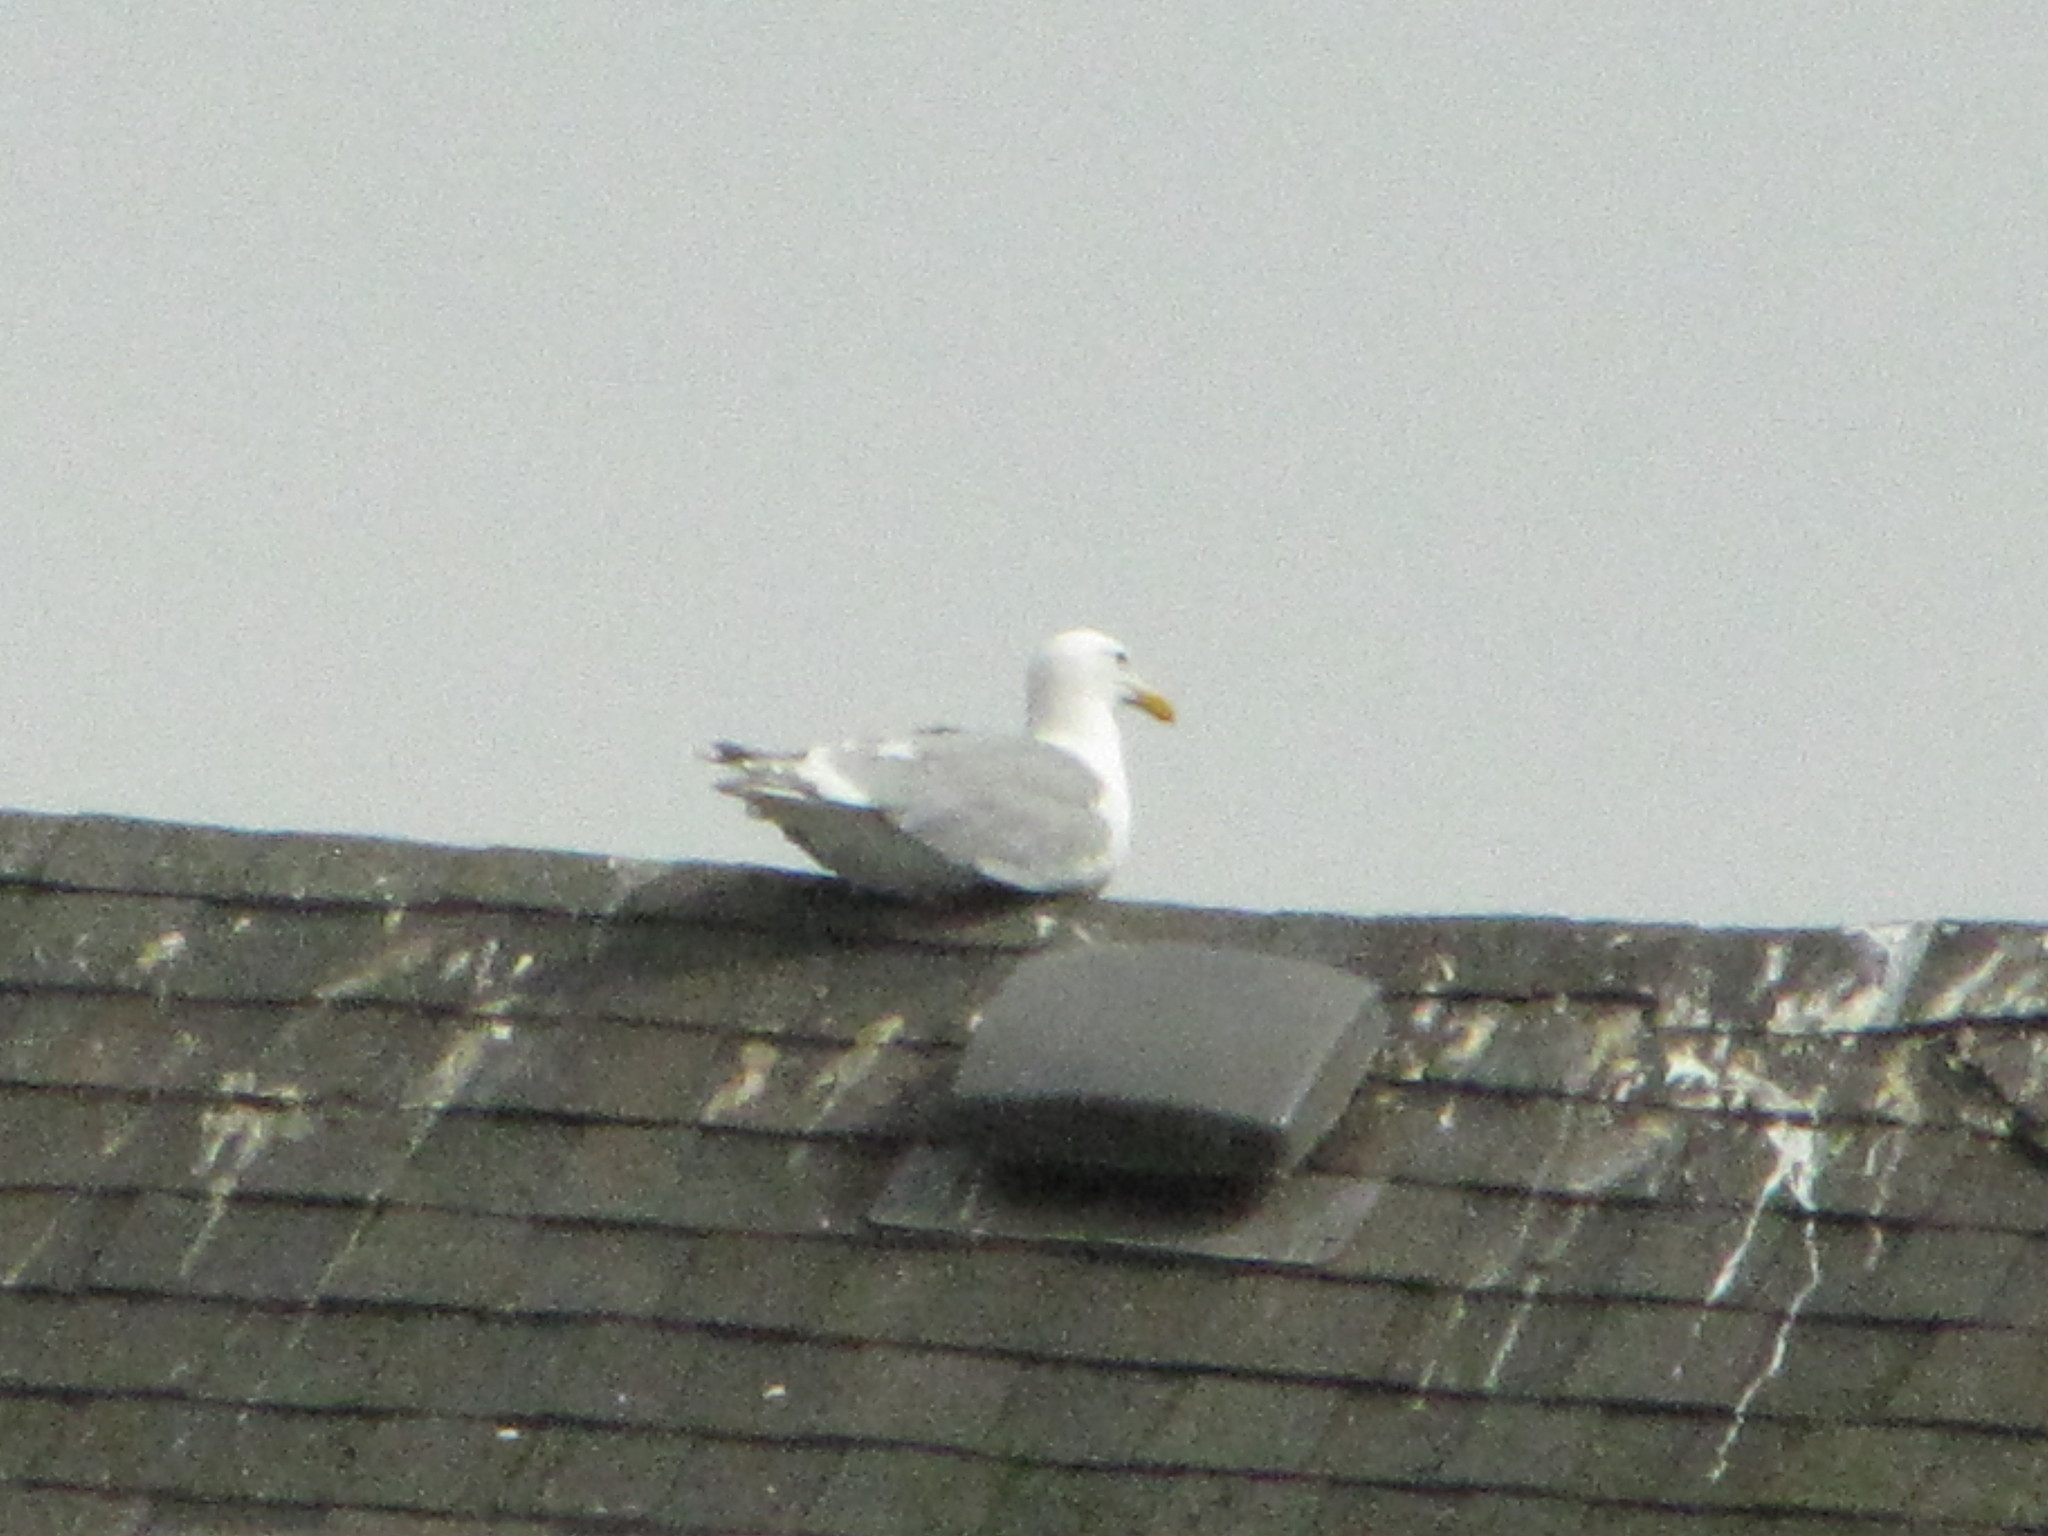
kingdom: Animalia
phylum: Chordata
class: Aves
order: Charadriiformes
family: Laridae
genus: Larus
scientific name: Larus glaucescens
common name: Glaucous-winged gull
